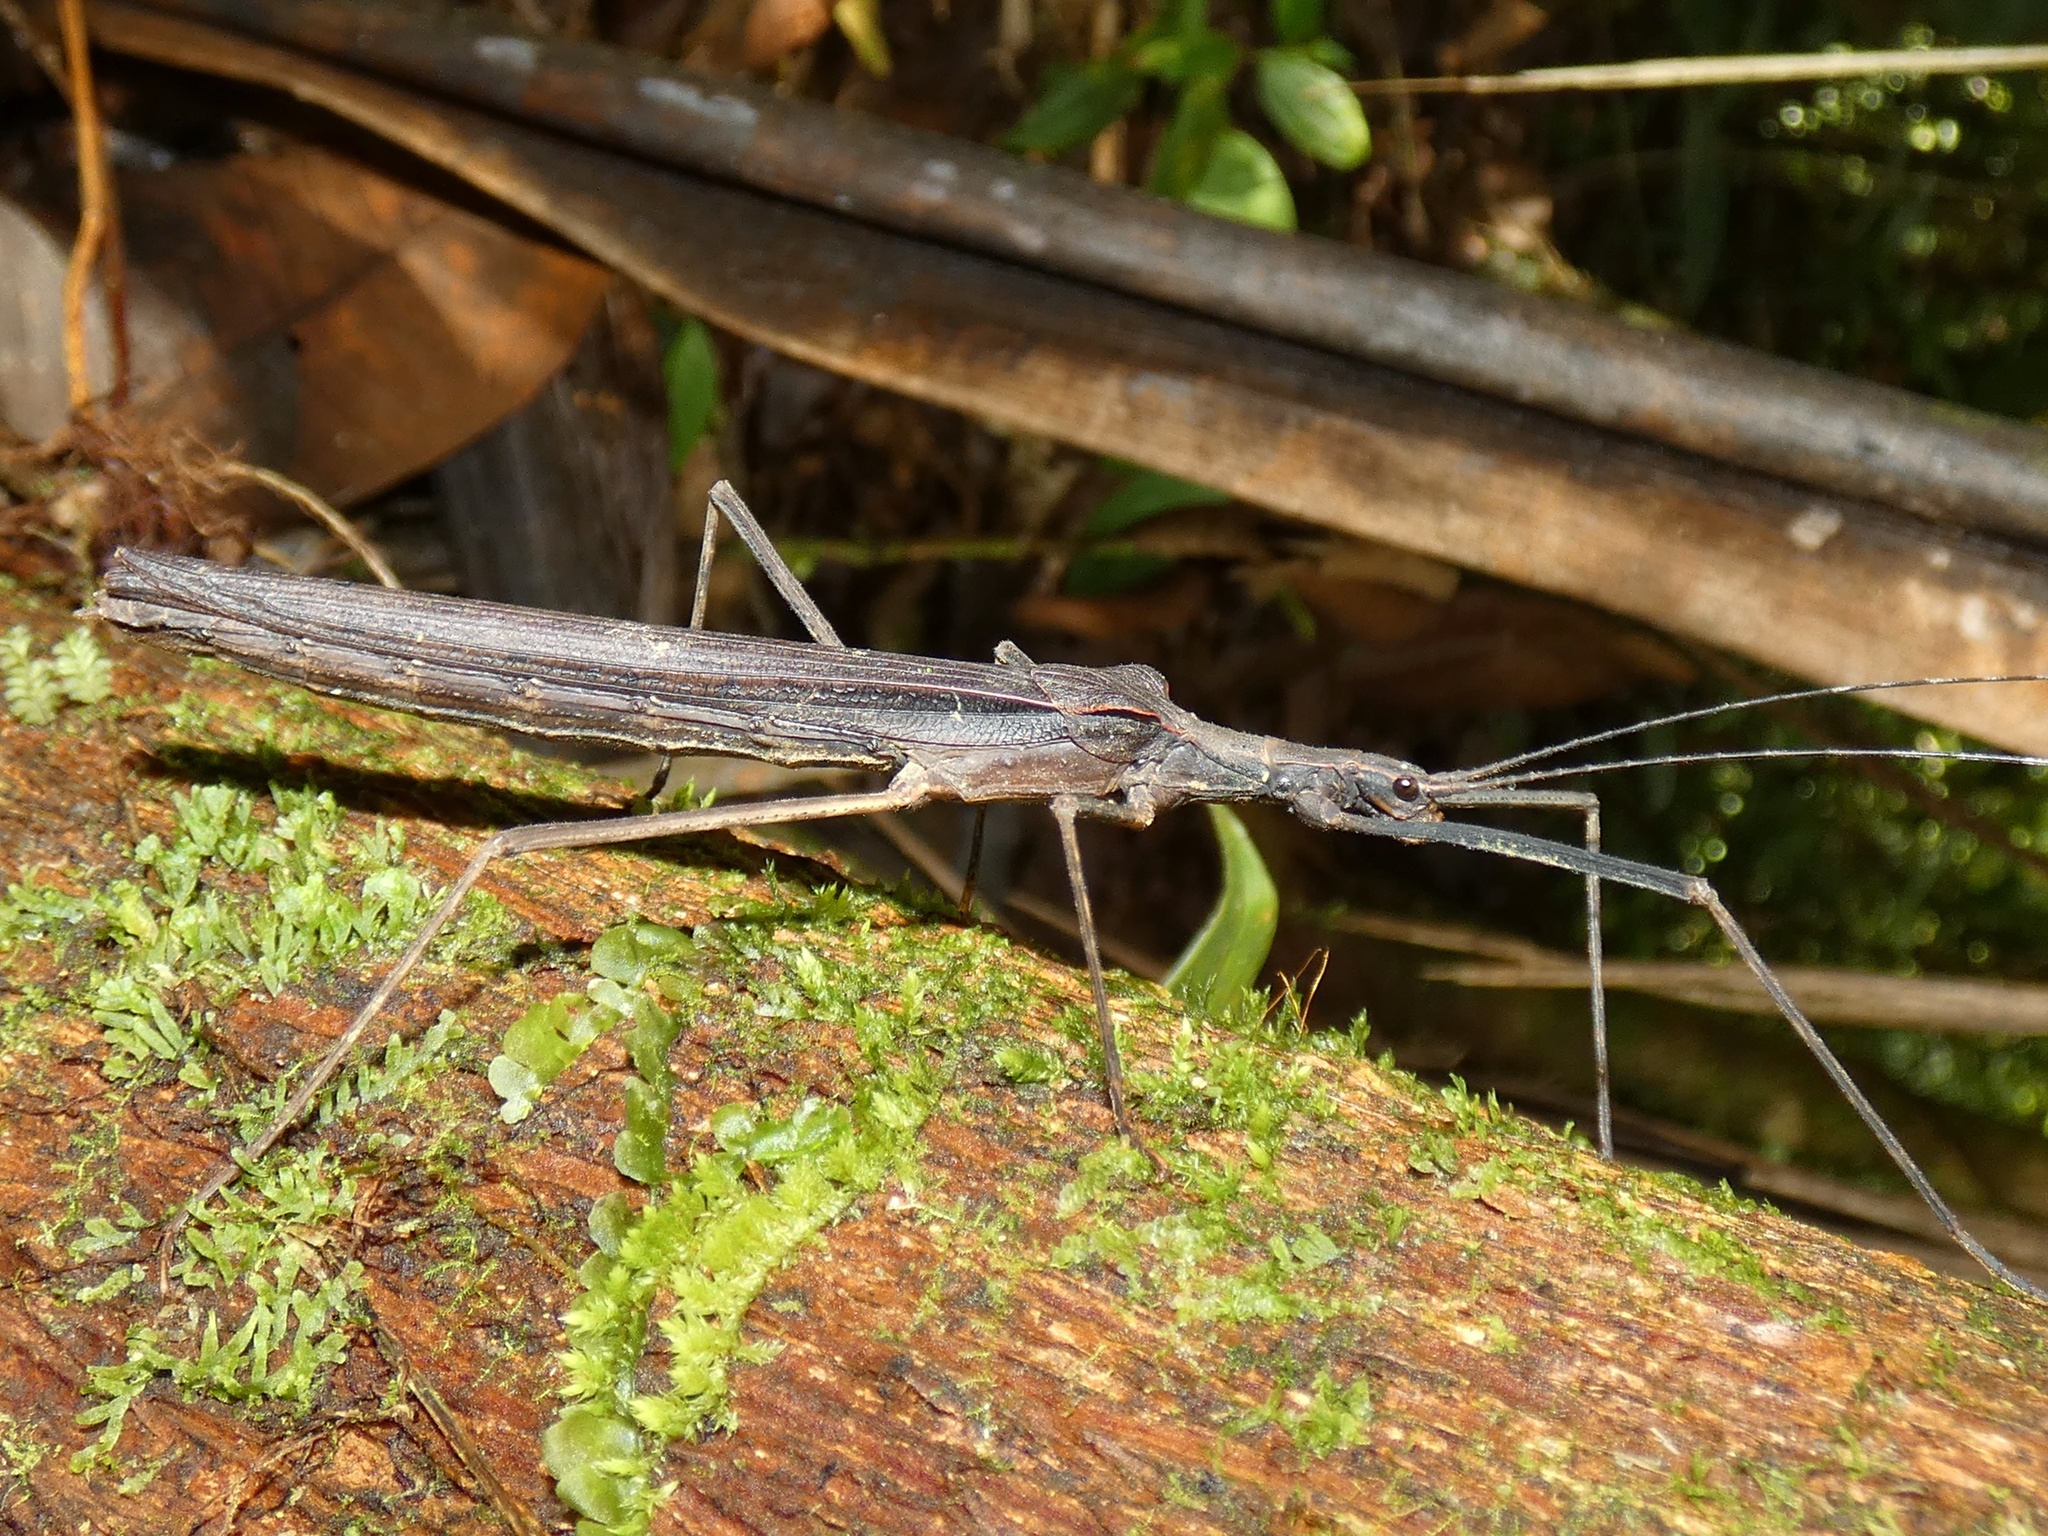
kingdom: Animalia
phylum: Arthropoda
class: Insecta
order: Phasmida
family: Pseudophasmatidae
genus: Pseudophasma
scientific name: Pseudophasma unicolor
